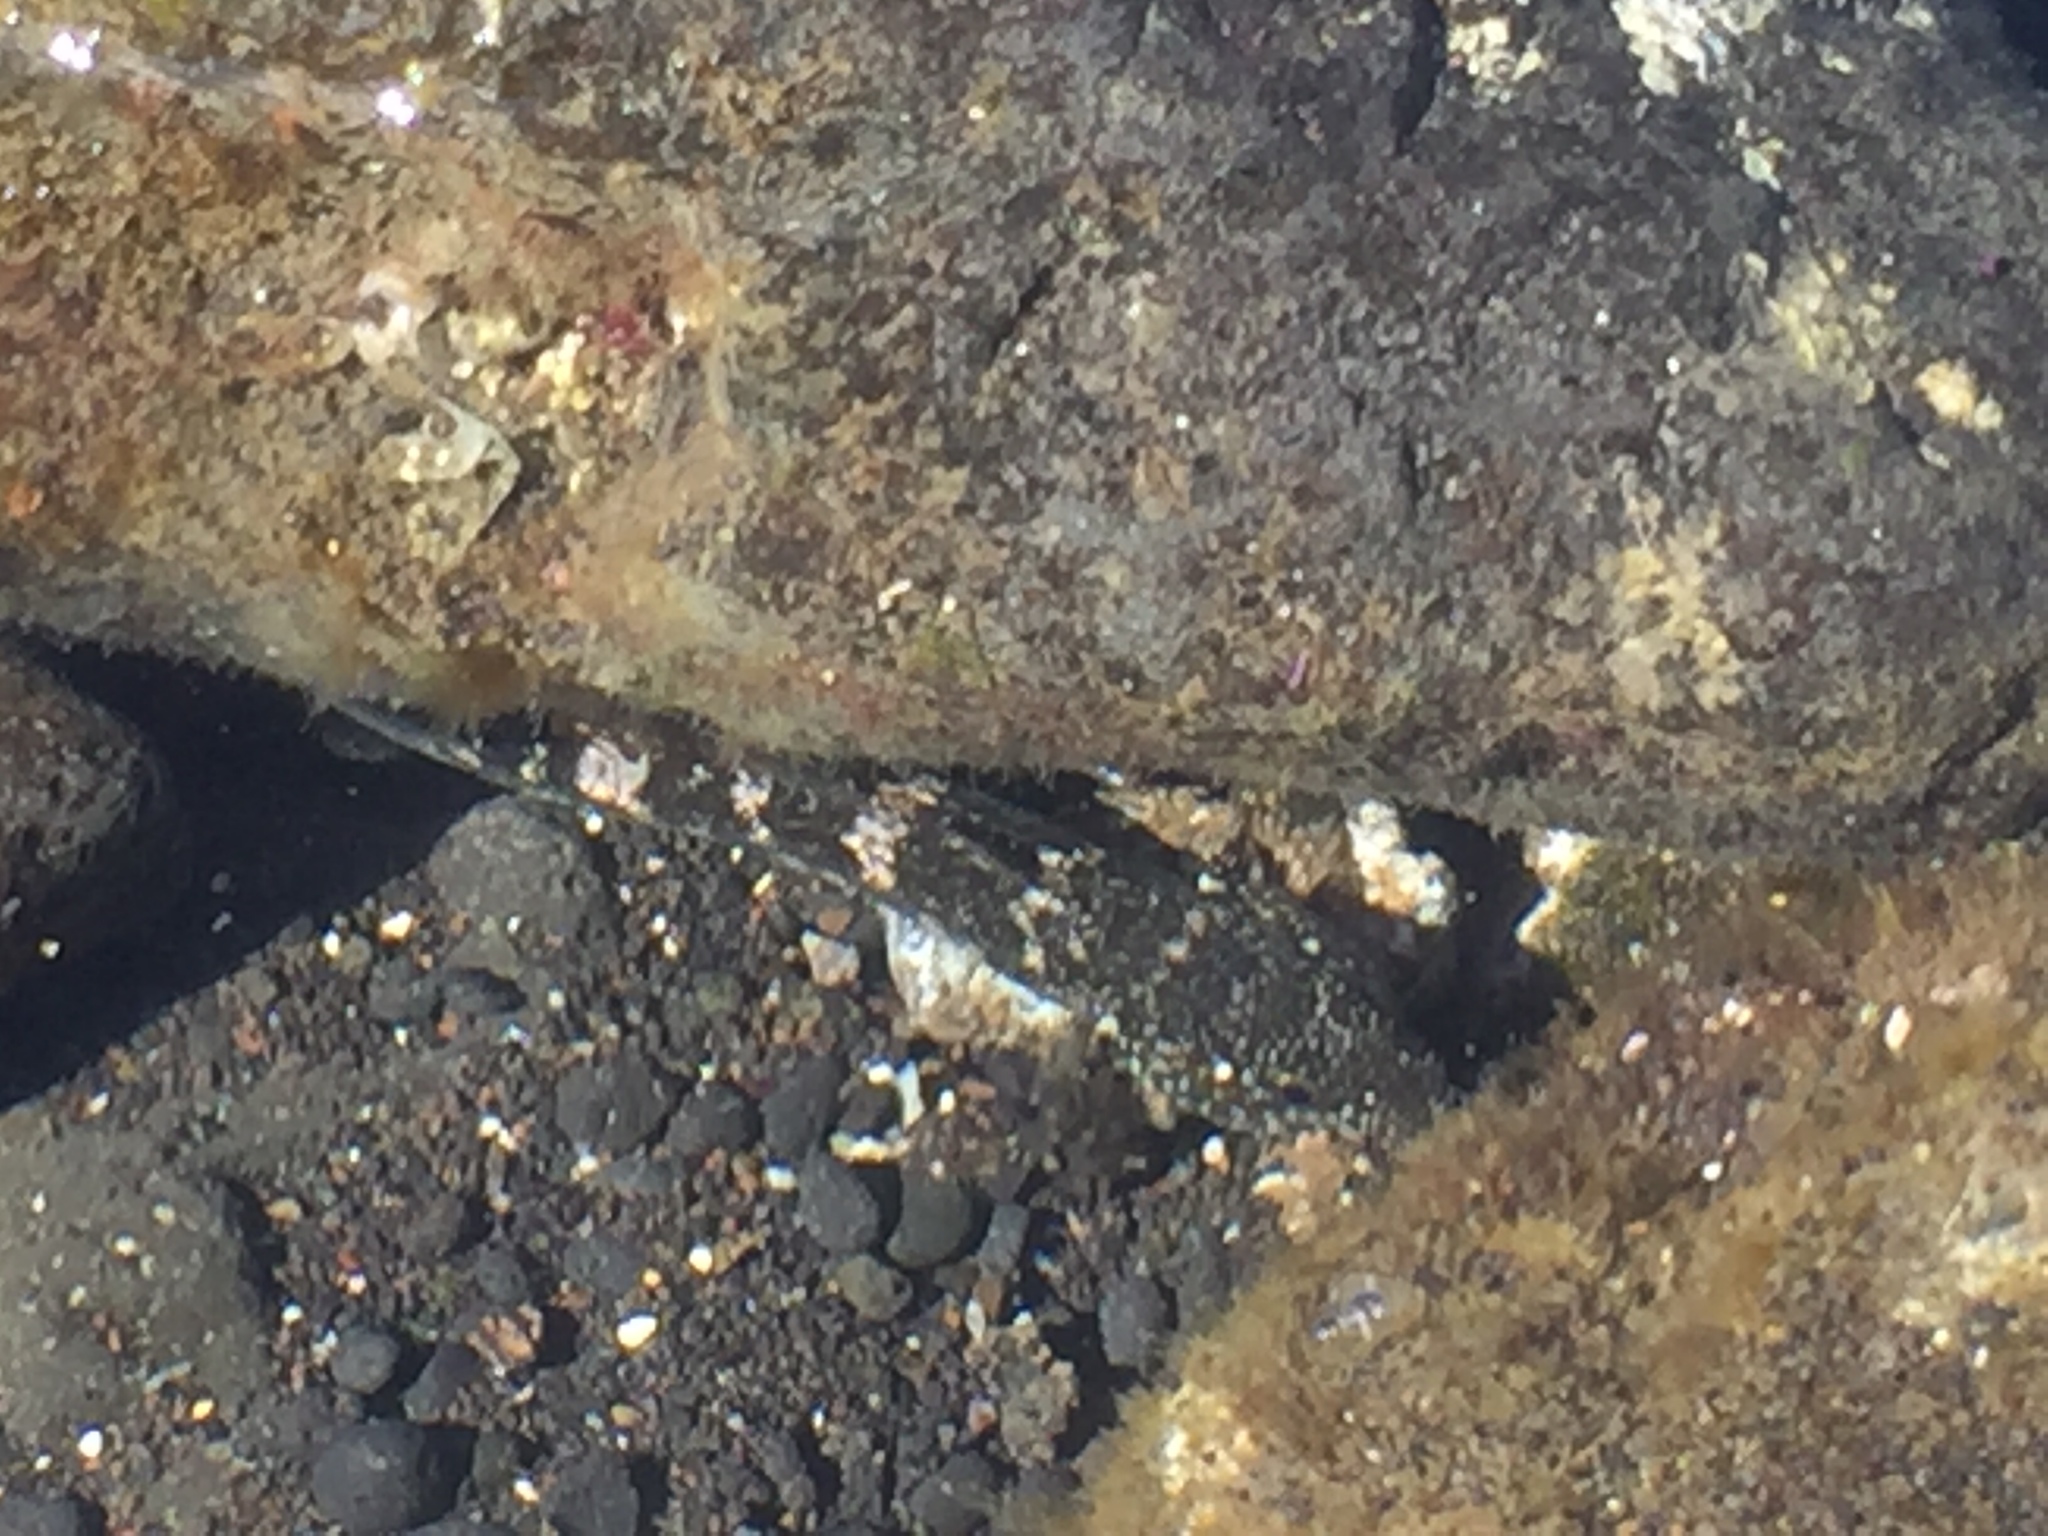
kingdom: Animalia
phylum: Chordata
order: Perciformes
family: Gobiidae
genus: Mauligobius
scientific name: Mauligobius maderensis
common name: Rock goby
